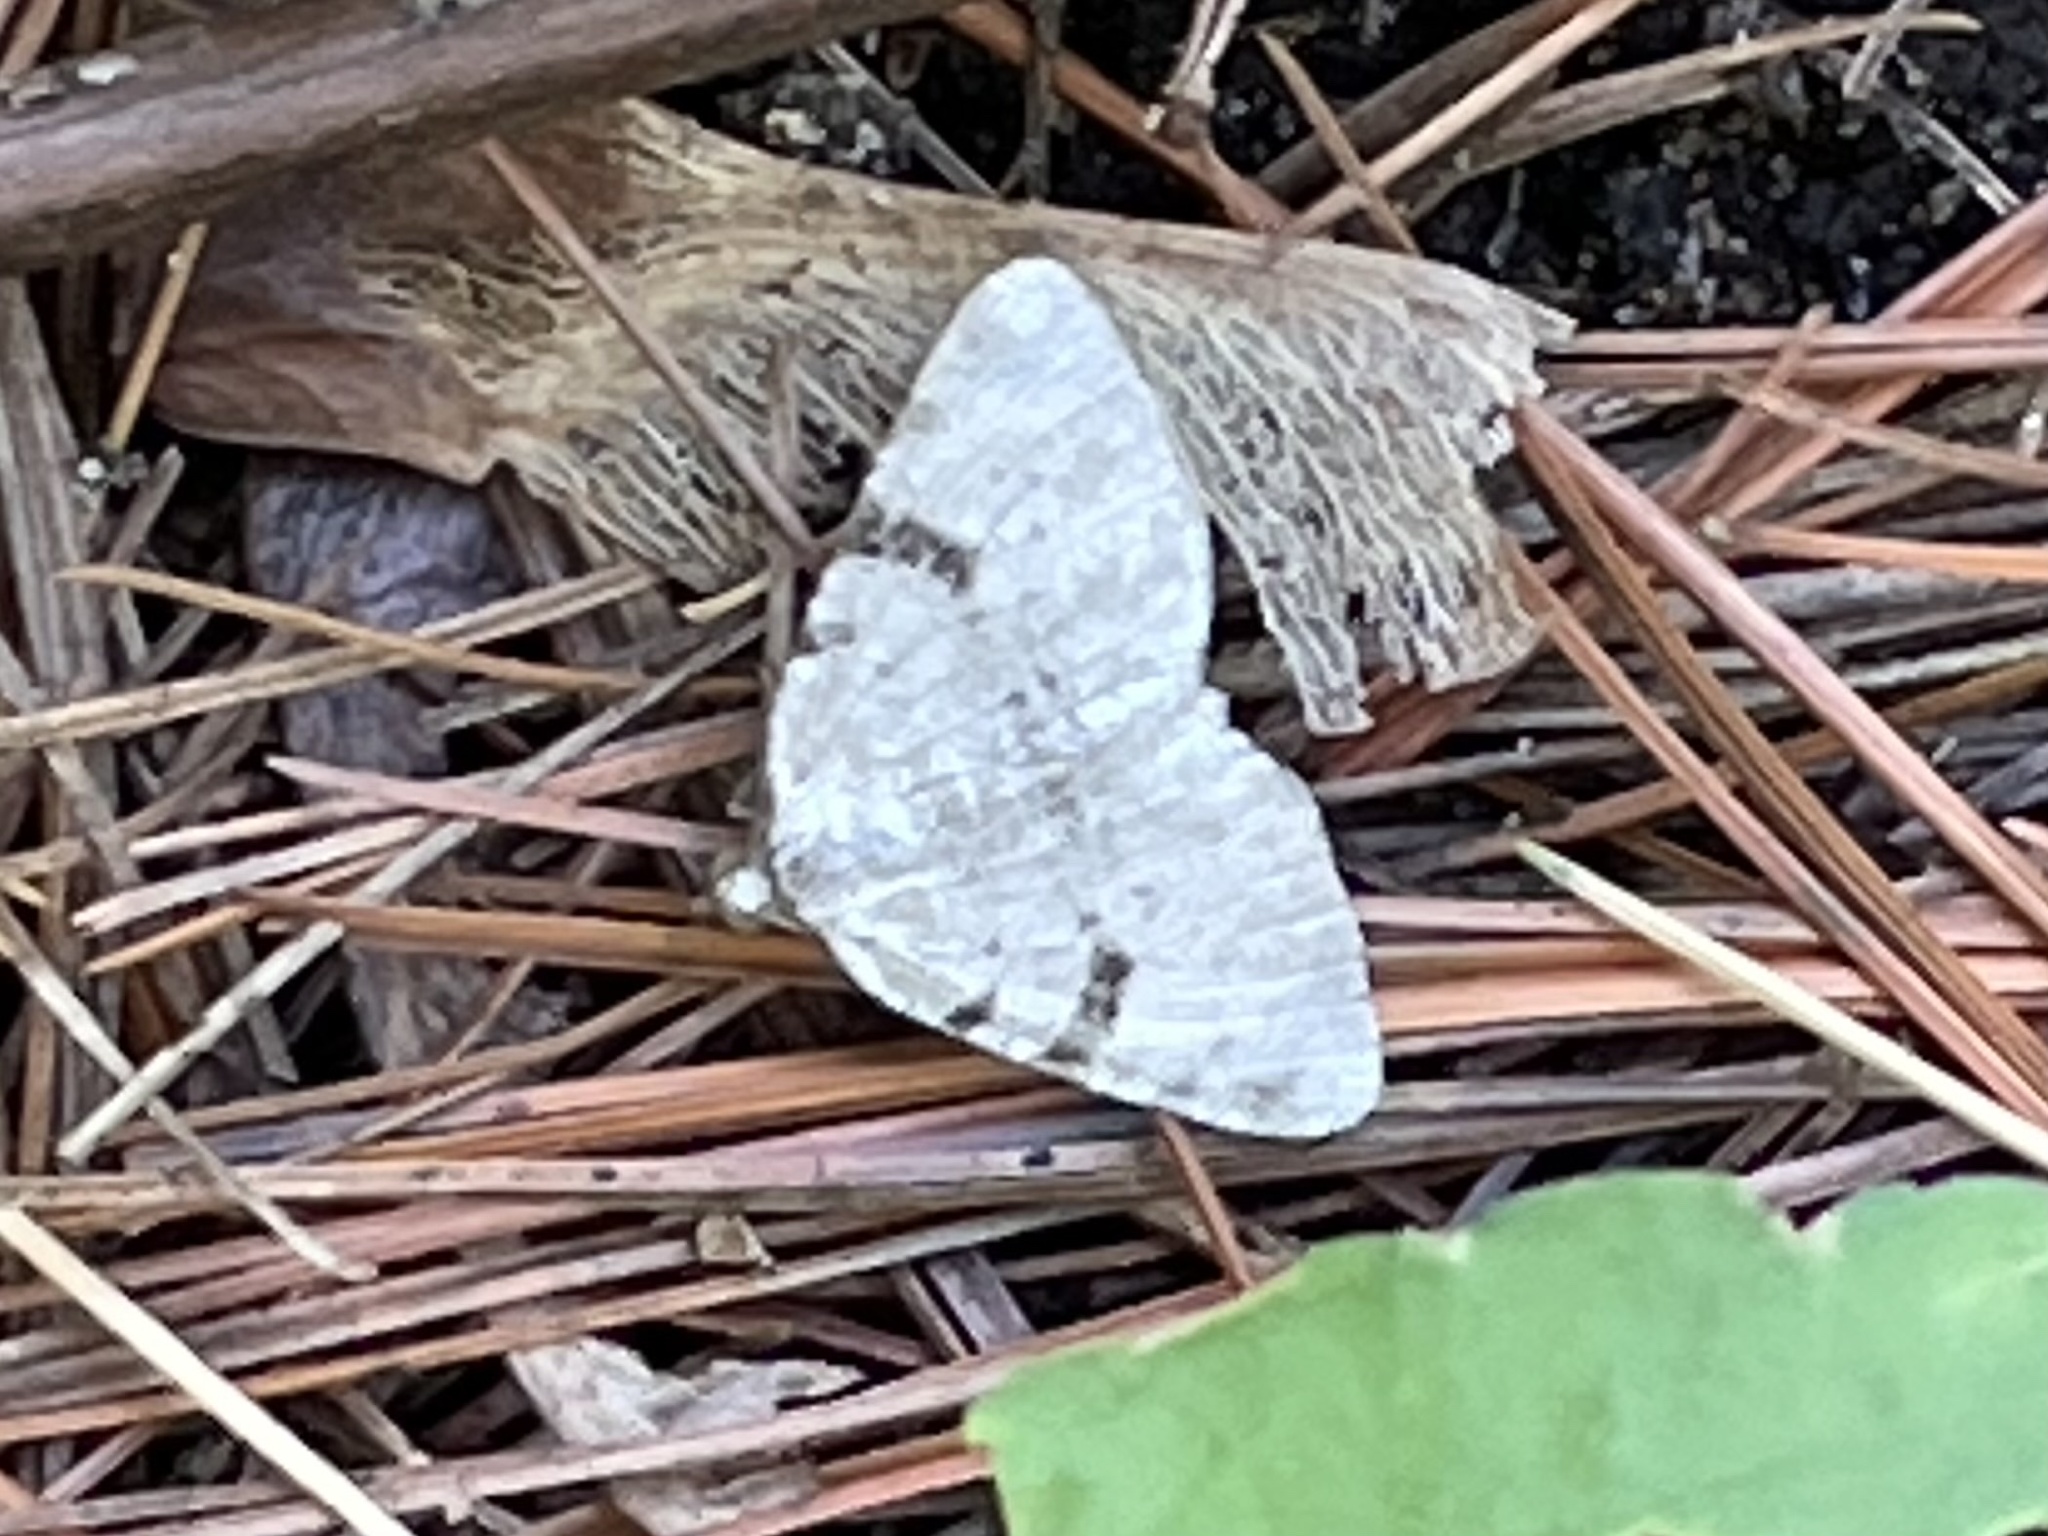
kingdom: Animalia
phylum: Arthropoda
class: Insecta
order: Lepidoptera
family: Geometridae
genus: Macaria
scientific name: Macaria subcessaria
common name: Barred angle
